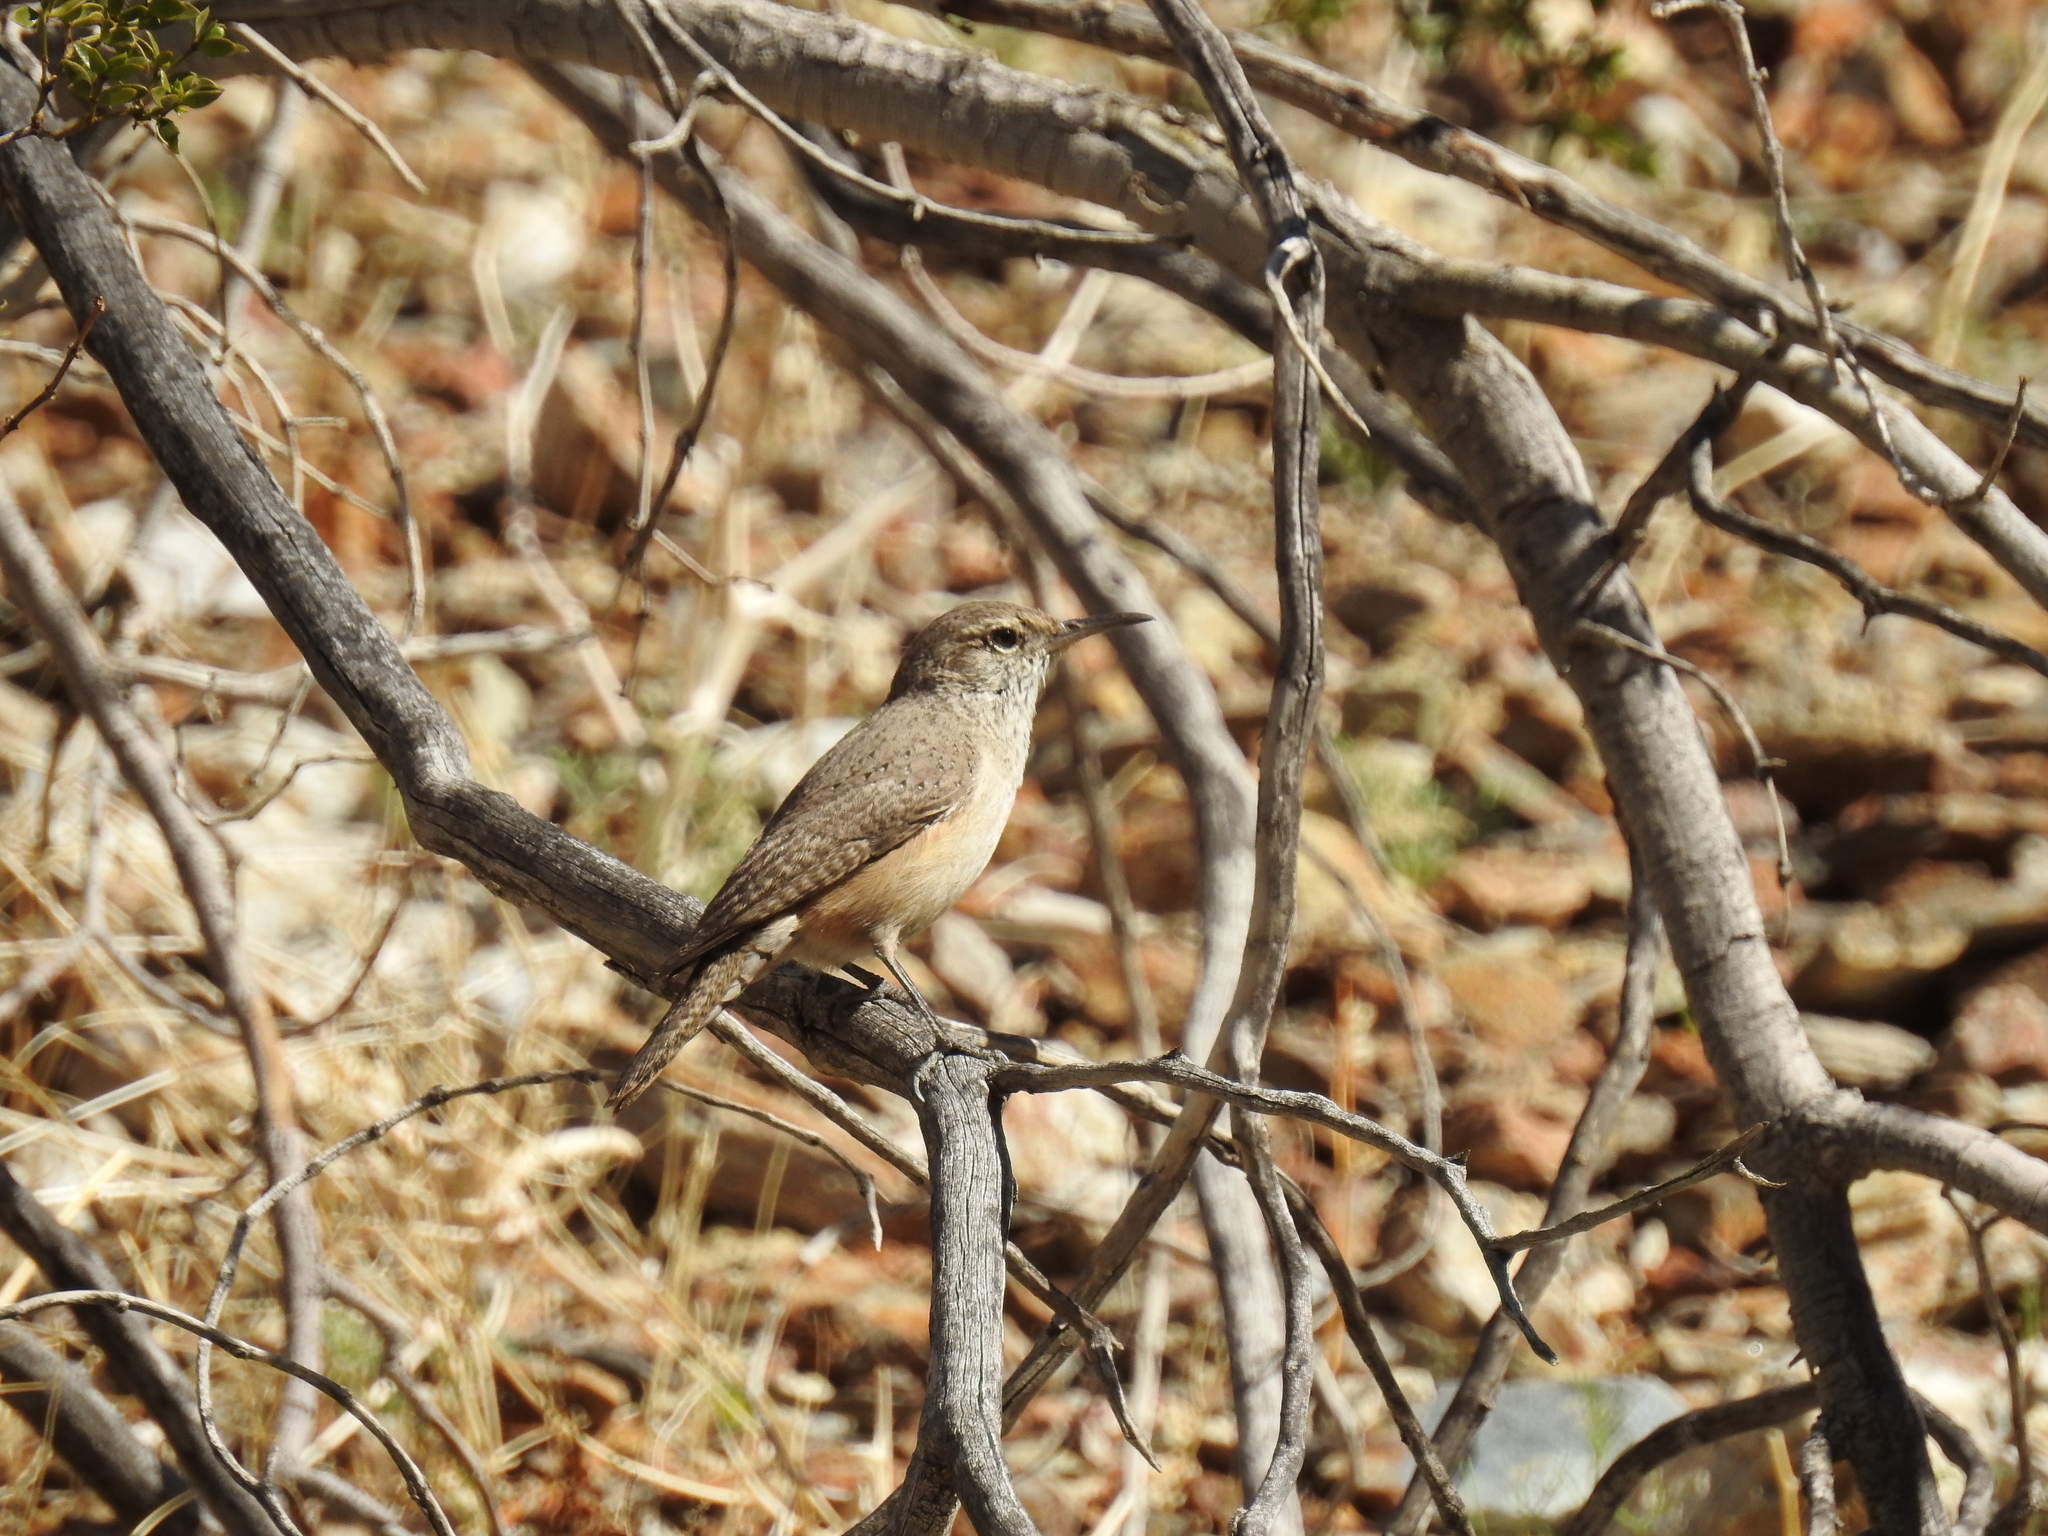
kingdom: Animalia
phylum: Chordata
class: Aves
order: Passeriformes
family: Troglodytidae
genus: Salpinctes
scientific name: Salpinctes obsoletus
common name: Rock wren
